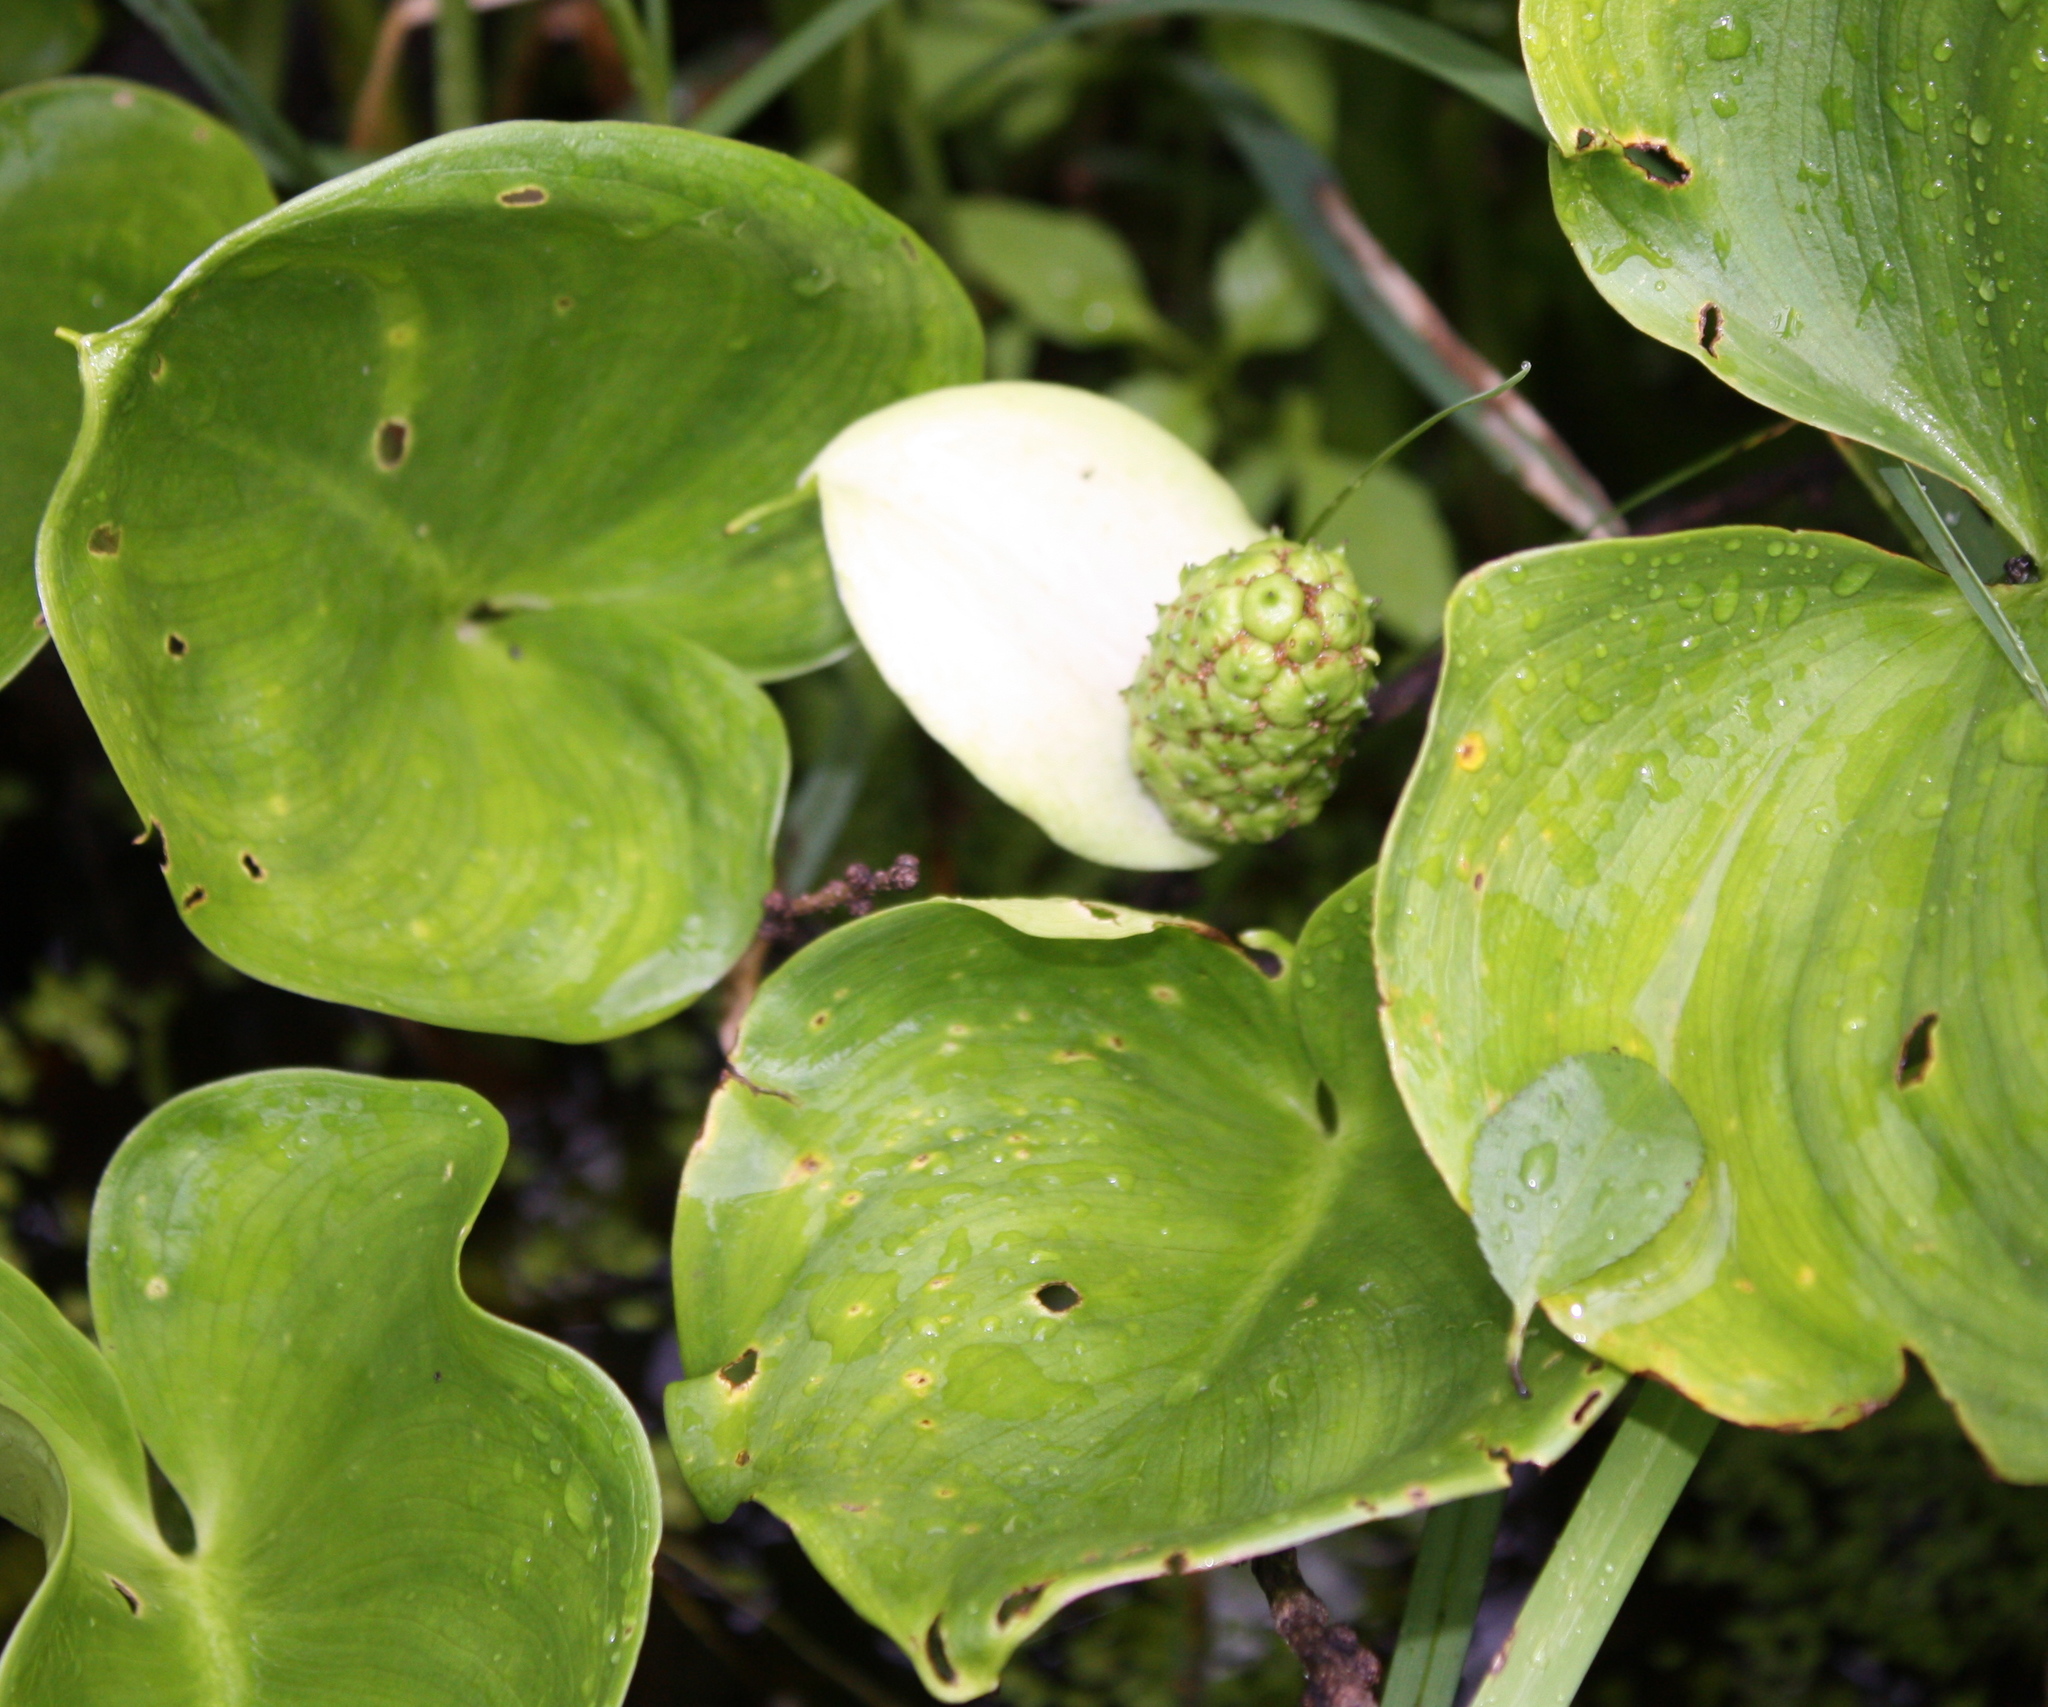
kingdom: Plantae
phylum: Tracheophyta
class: Liliopsida
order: Alismatales
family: Araceae
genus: Calla
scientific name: Calla palustris
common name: Bog arum
